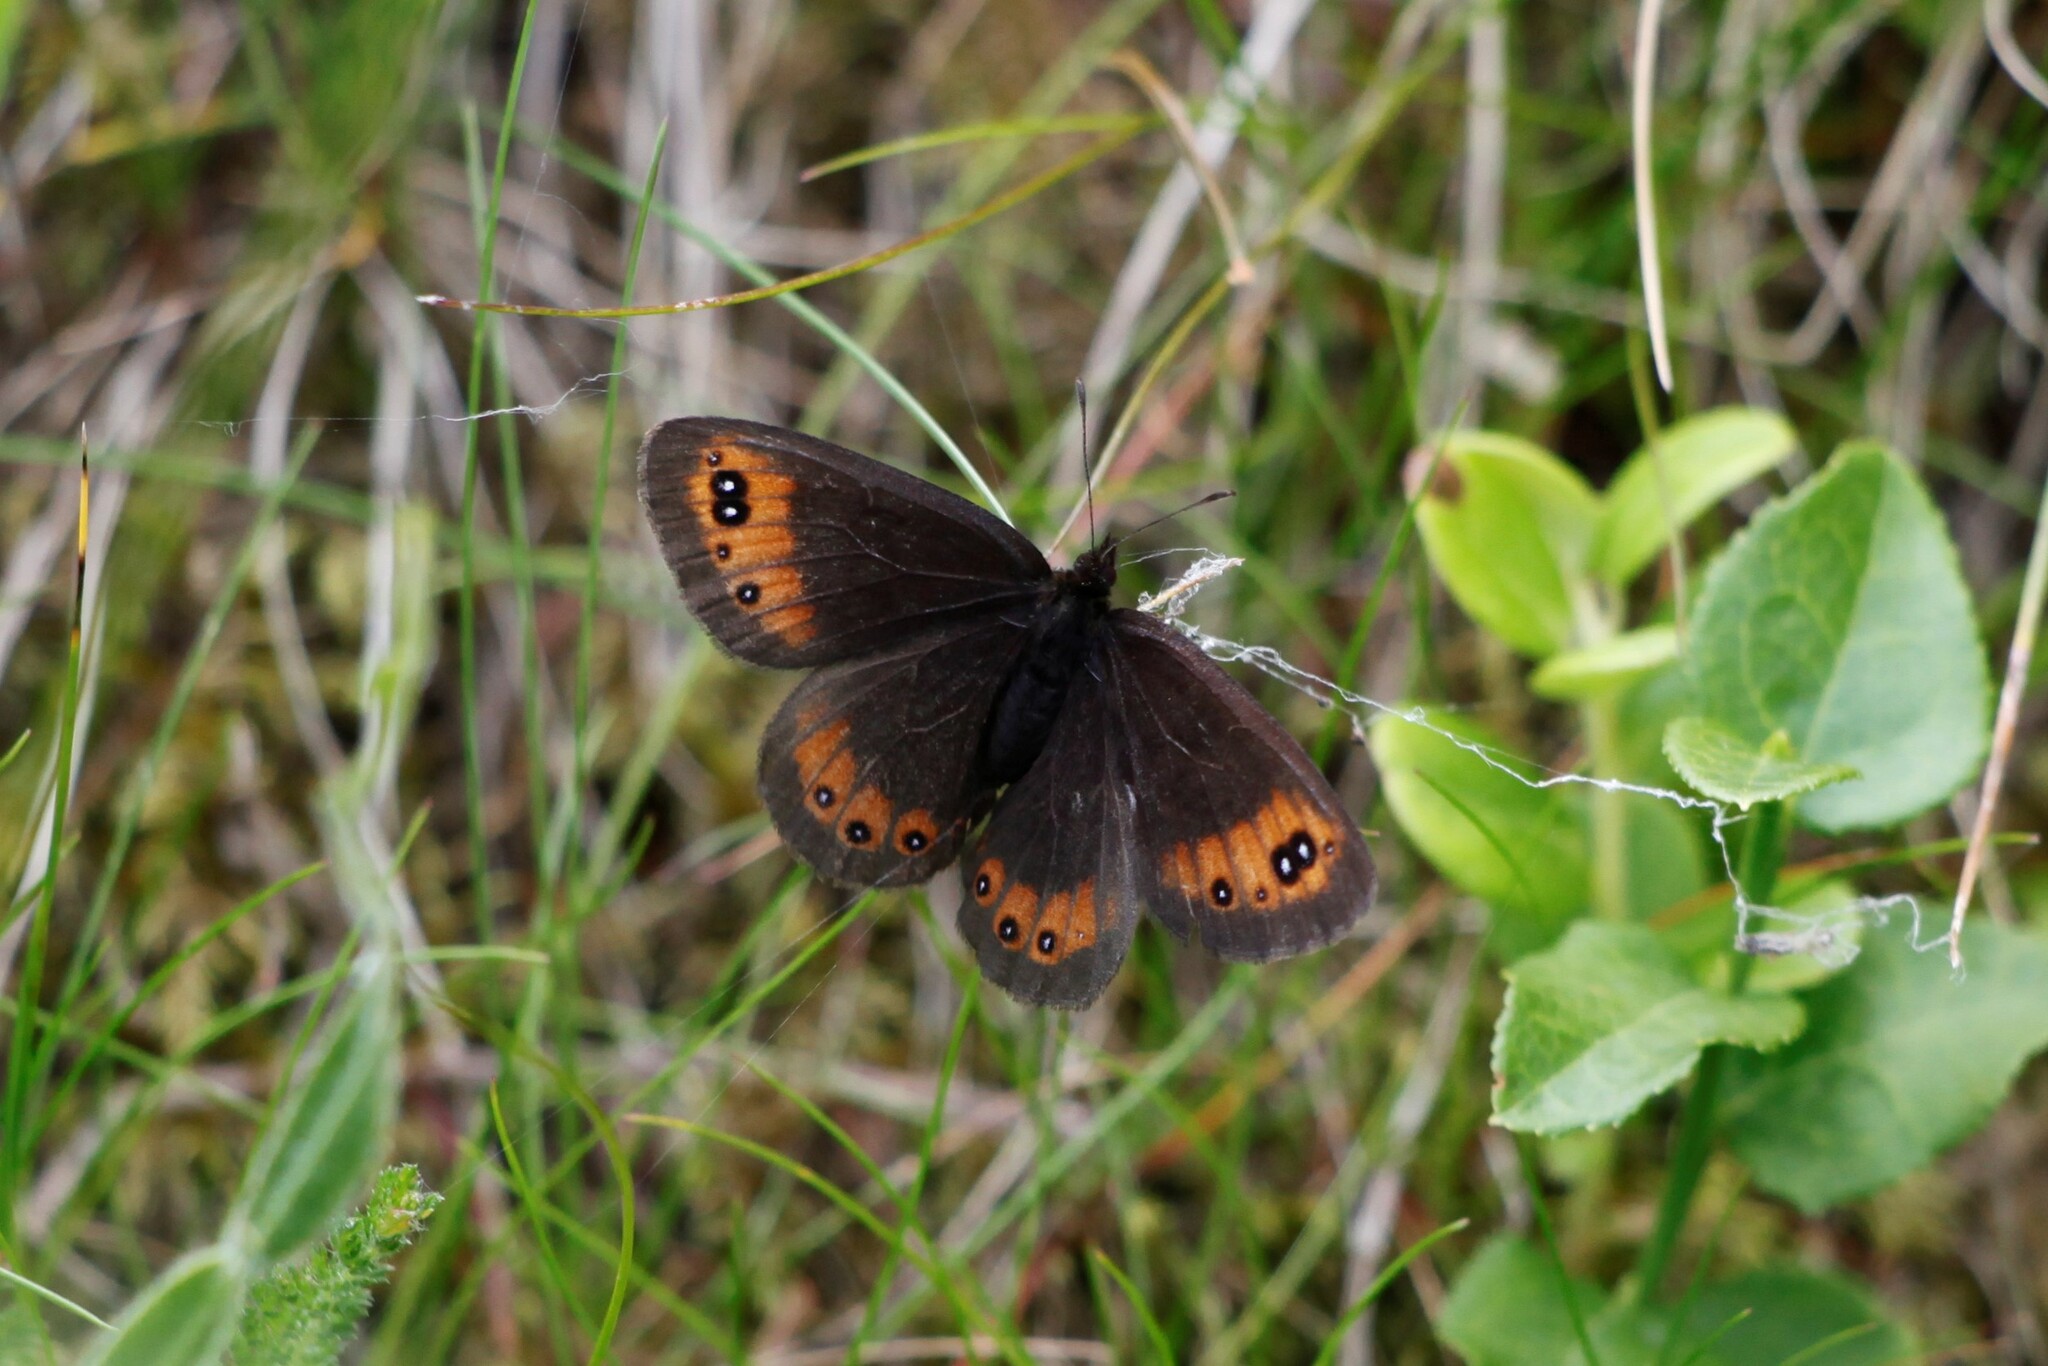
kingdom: Animalia
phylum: Arthropoda
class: Insecta
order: Lepidoptera
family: Nymphalidae
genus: Erebia
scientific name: Erebia meolans
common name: Piedmont ringlet
